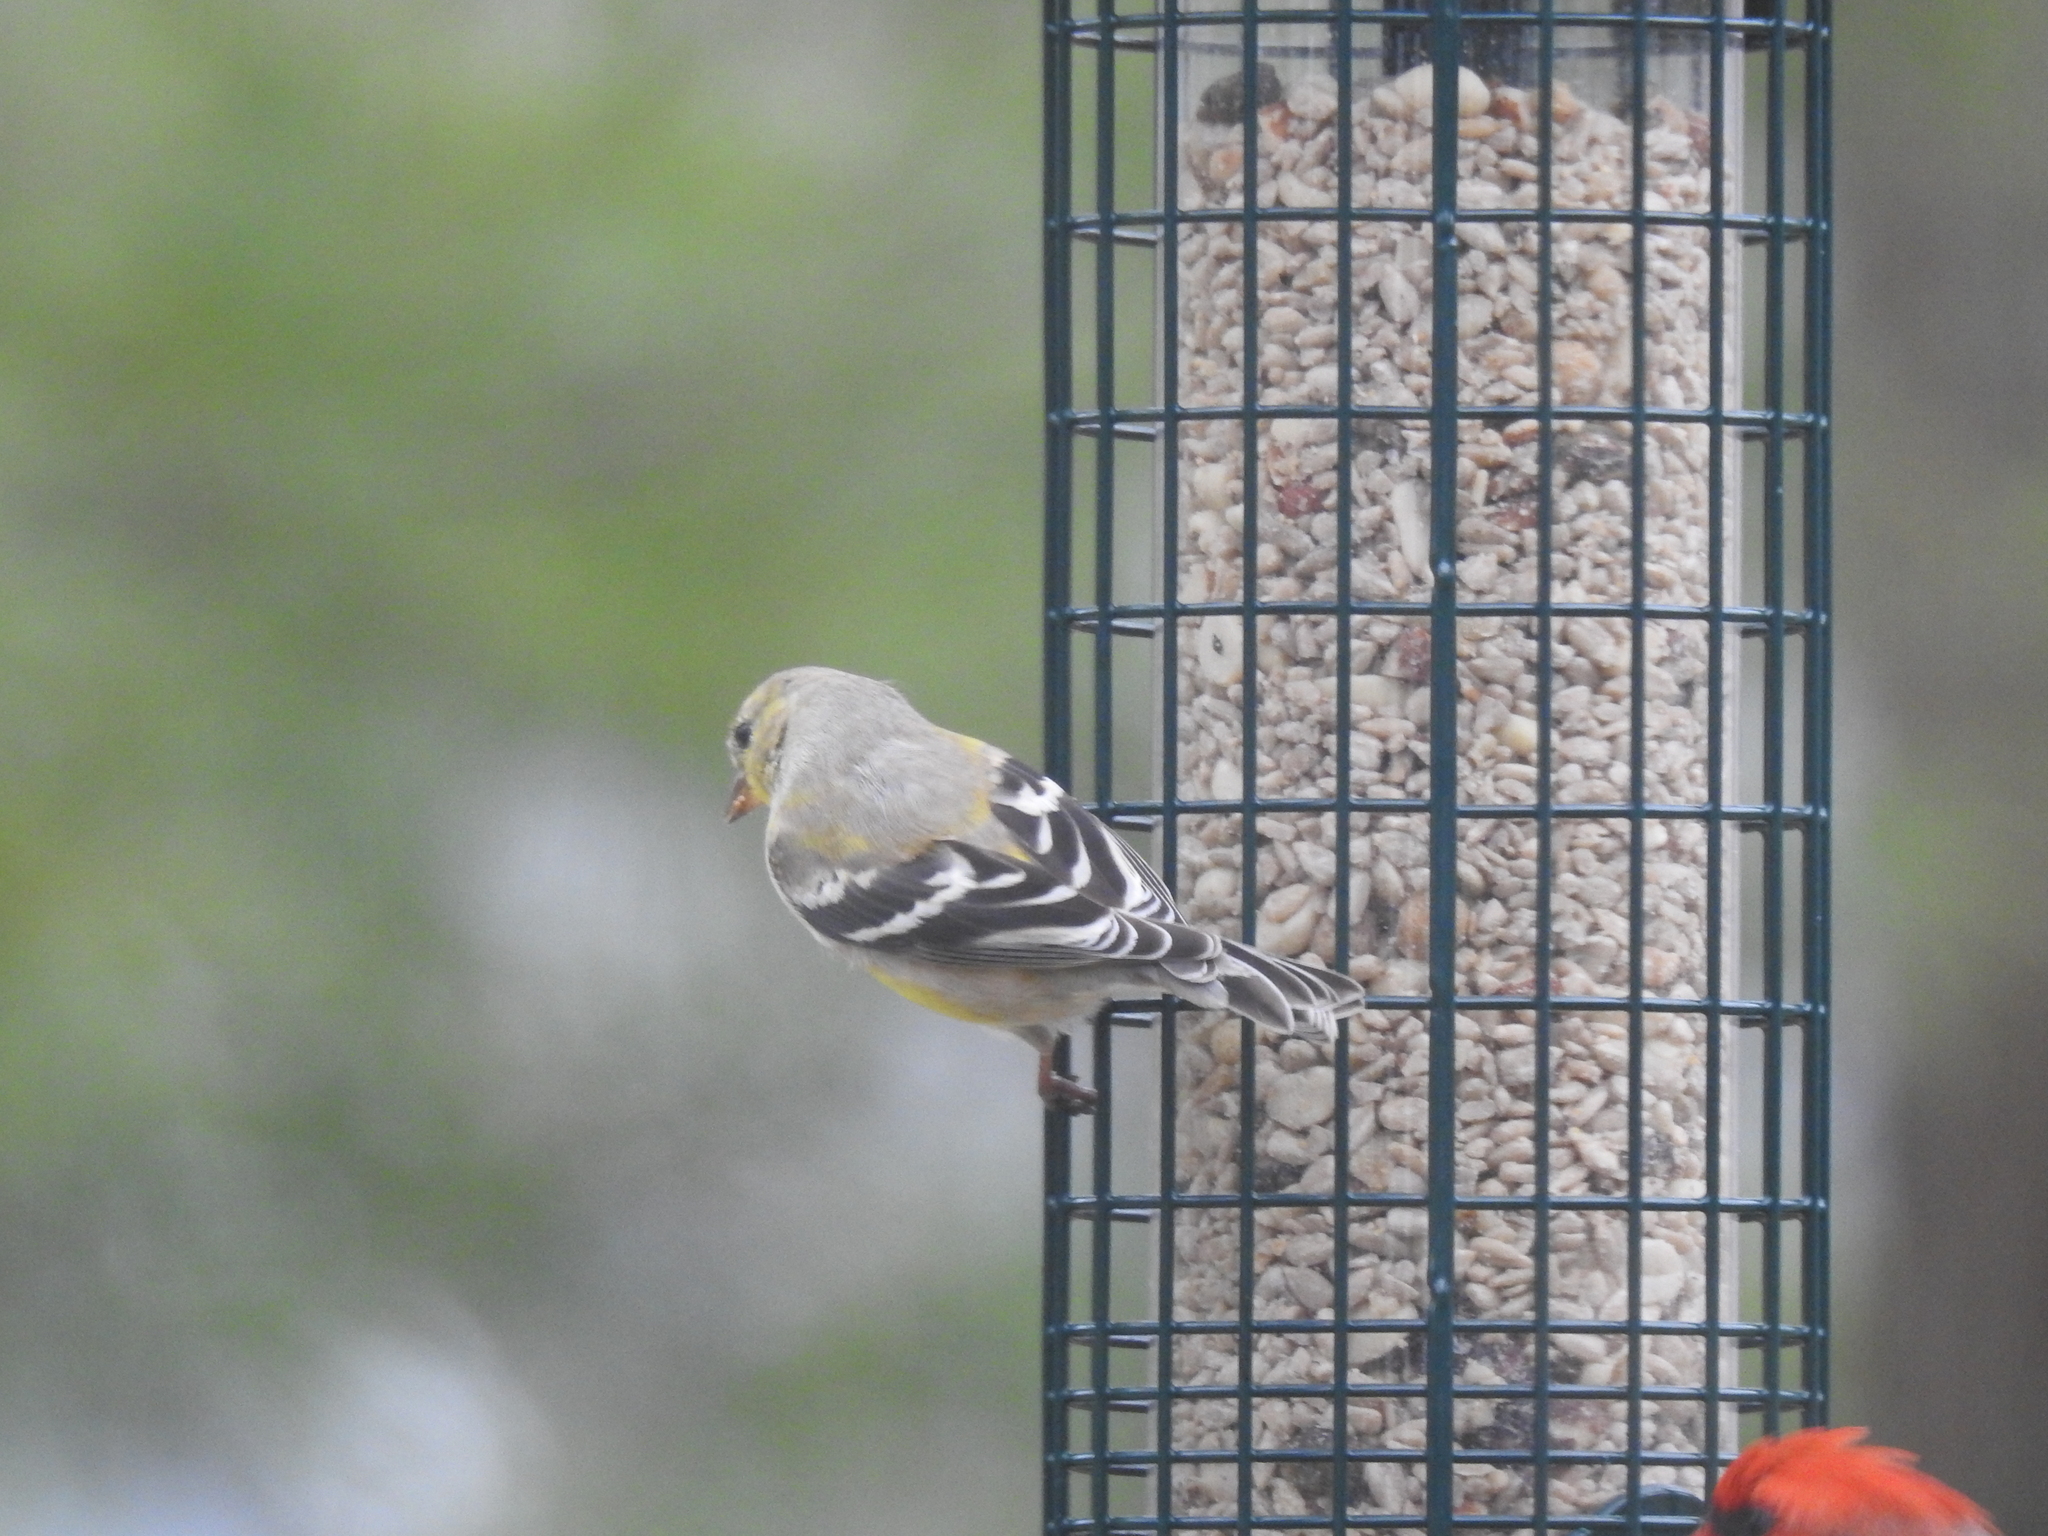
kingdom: Animalia
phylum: Chordata
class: Aves
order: Passeriformes
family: Fringillidae
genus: Spinus
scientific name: Spinus tristis
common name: American goldfinch
